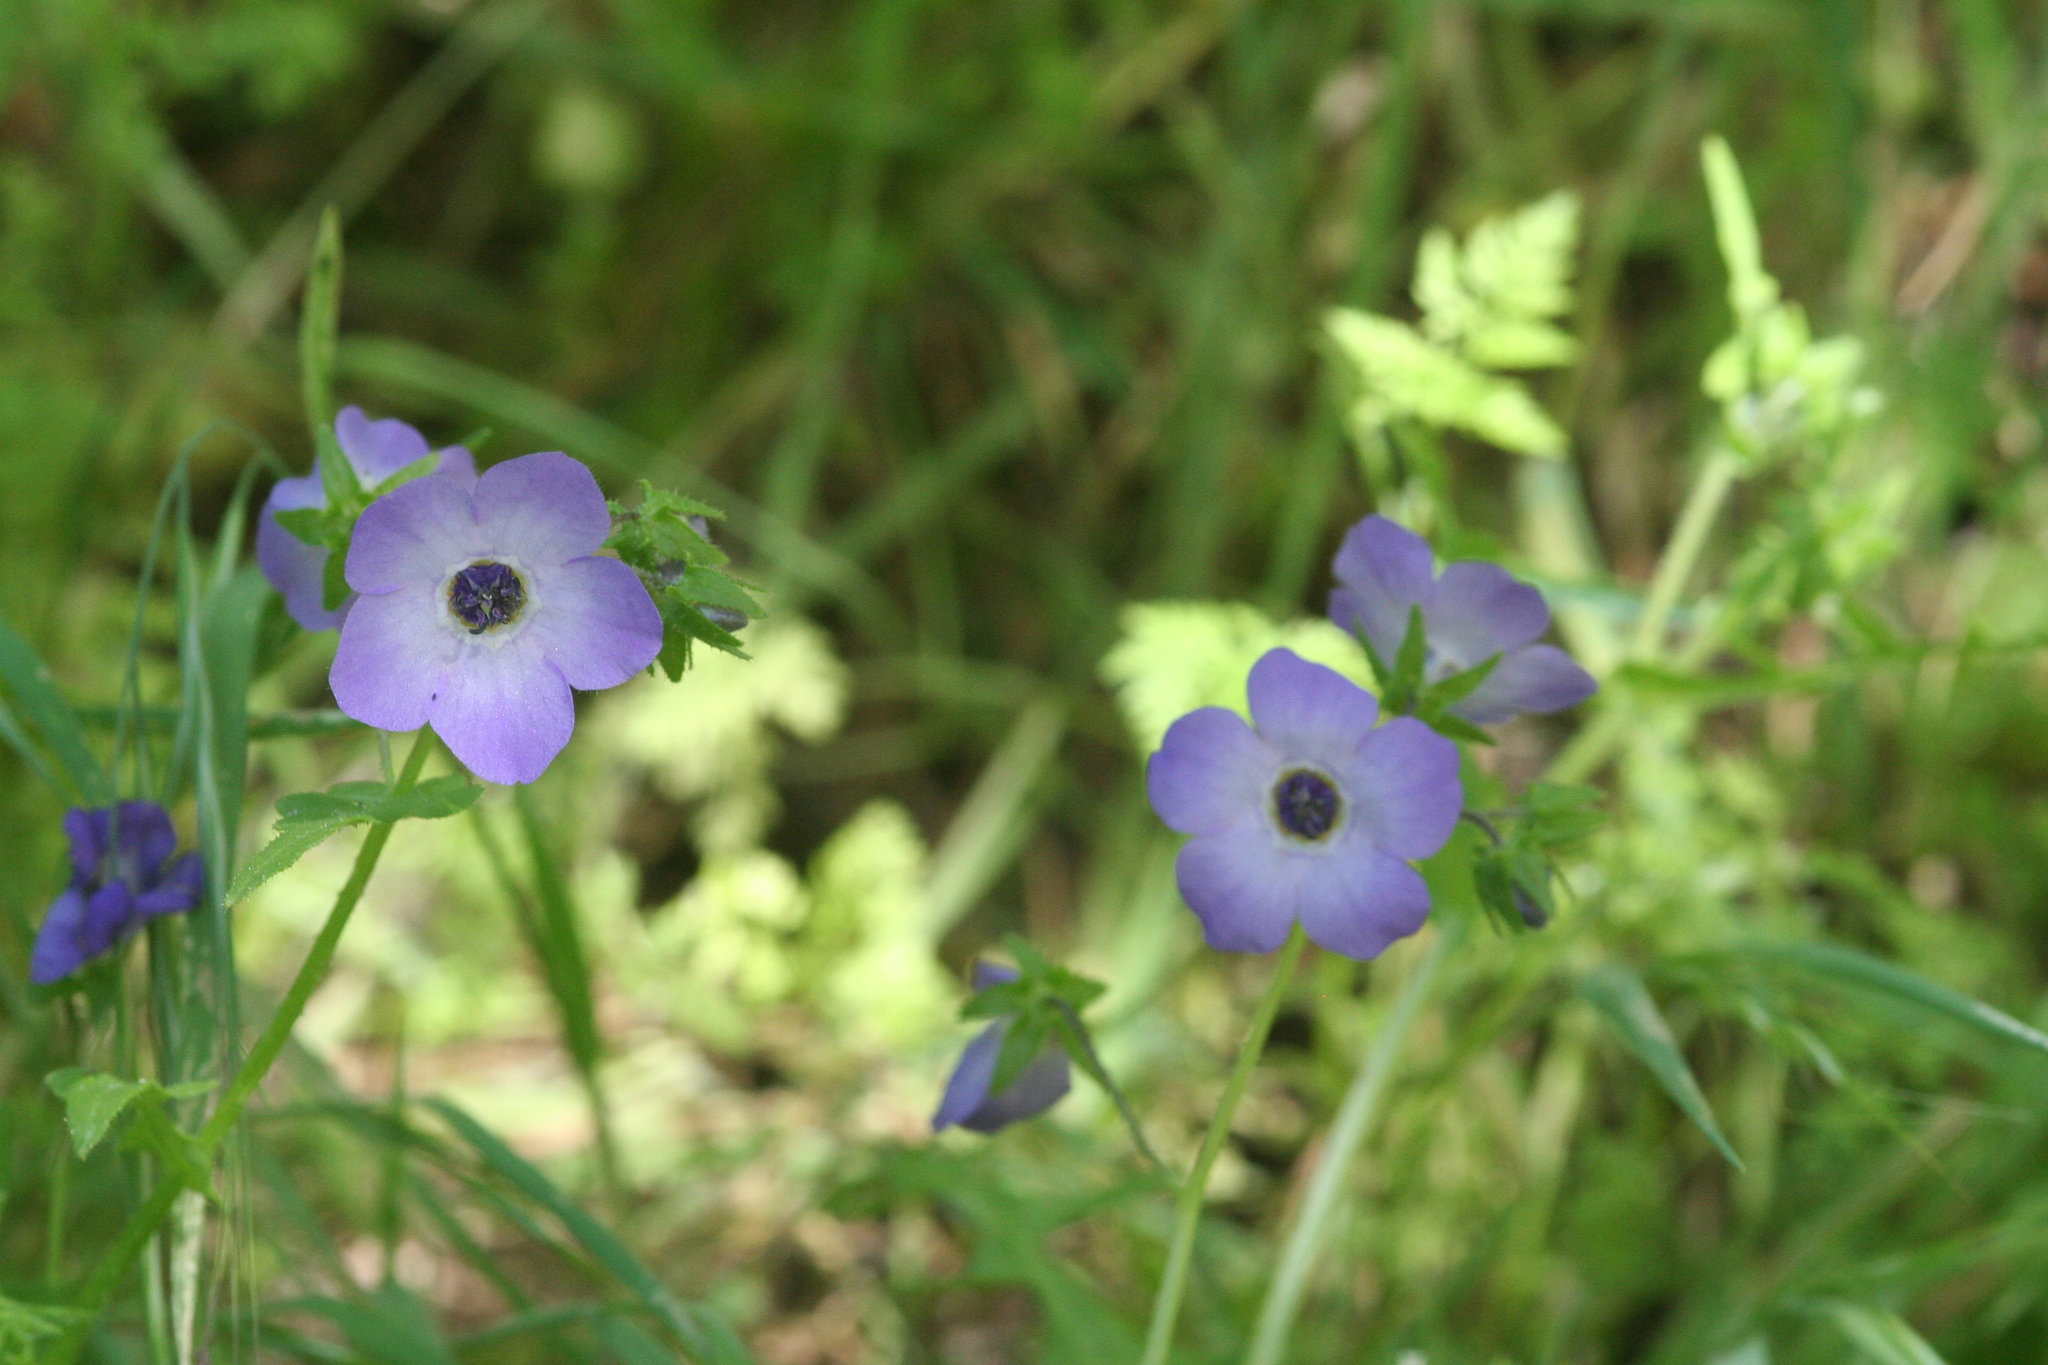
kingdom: Plantae
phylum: Tracheophyta
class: Magnoliopsida
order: Boraginales
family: Hydrophyllaceae
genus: Pholistoma
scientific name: Pholistoma auritum
